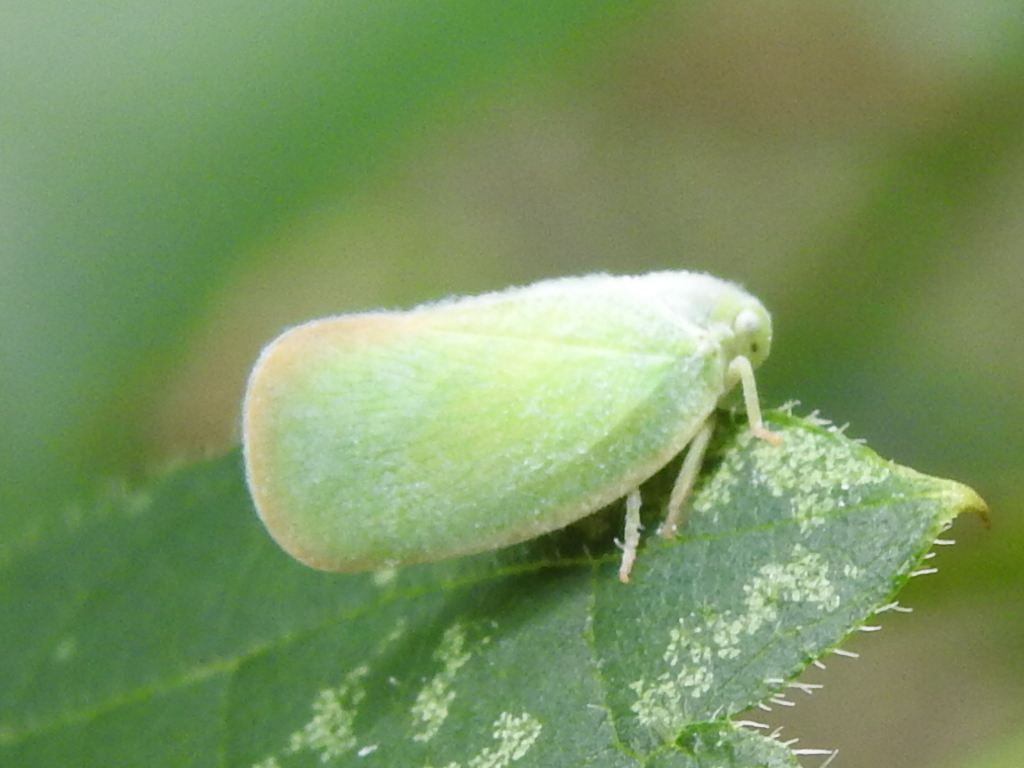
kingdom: Animalia
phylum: Arthropoda
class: Insecta
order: Hemiptera
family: Flatidae
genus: Ormenoides
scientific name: Ormenoides venusta
